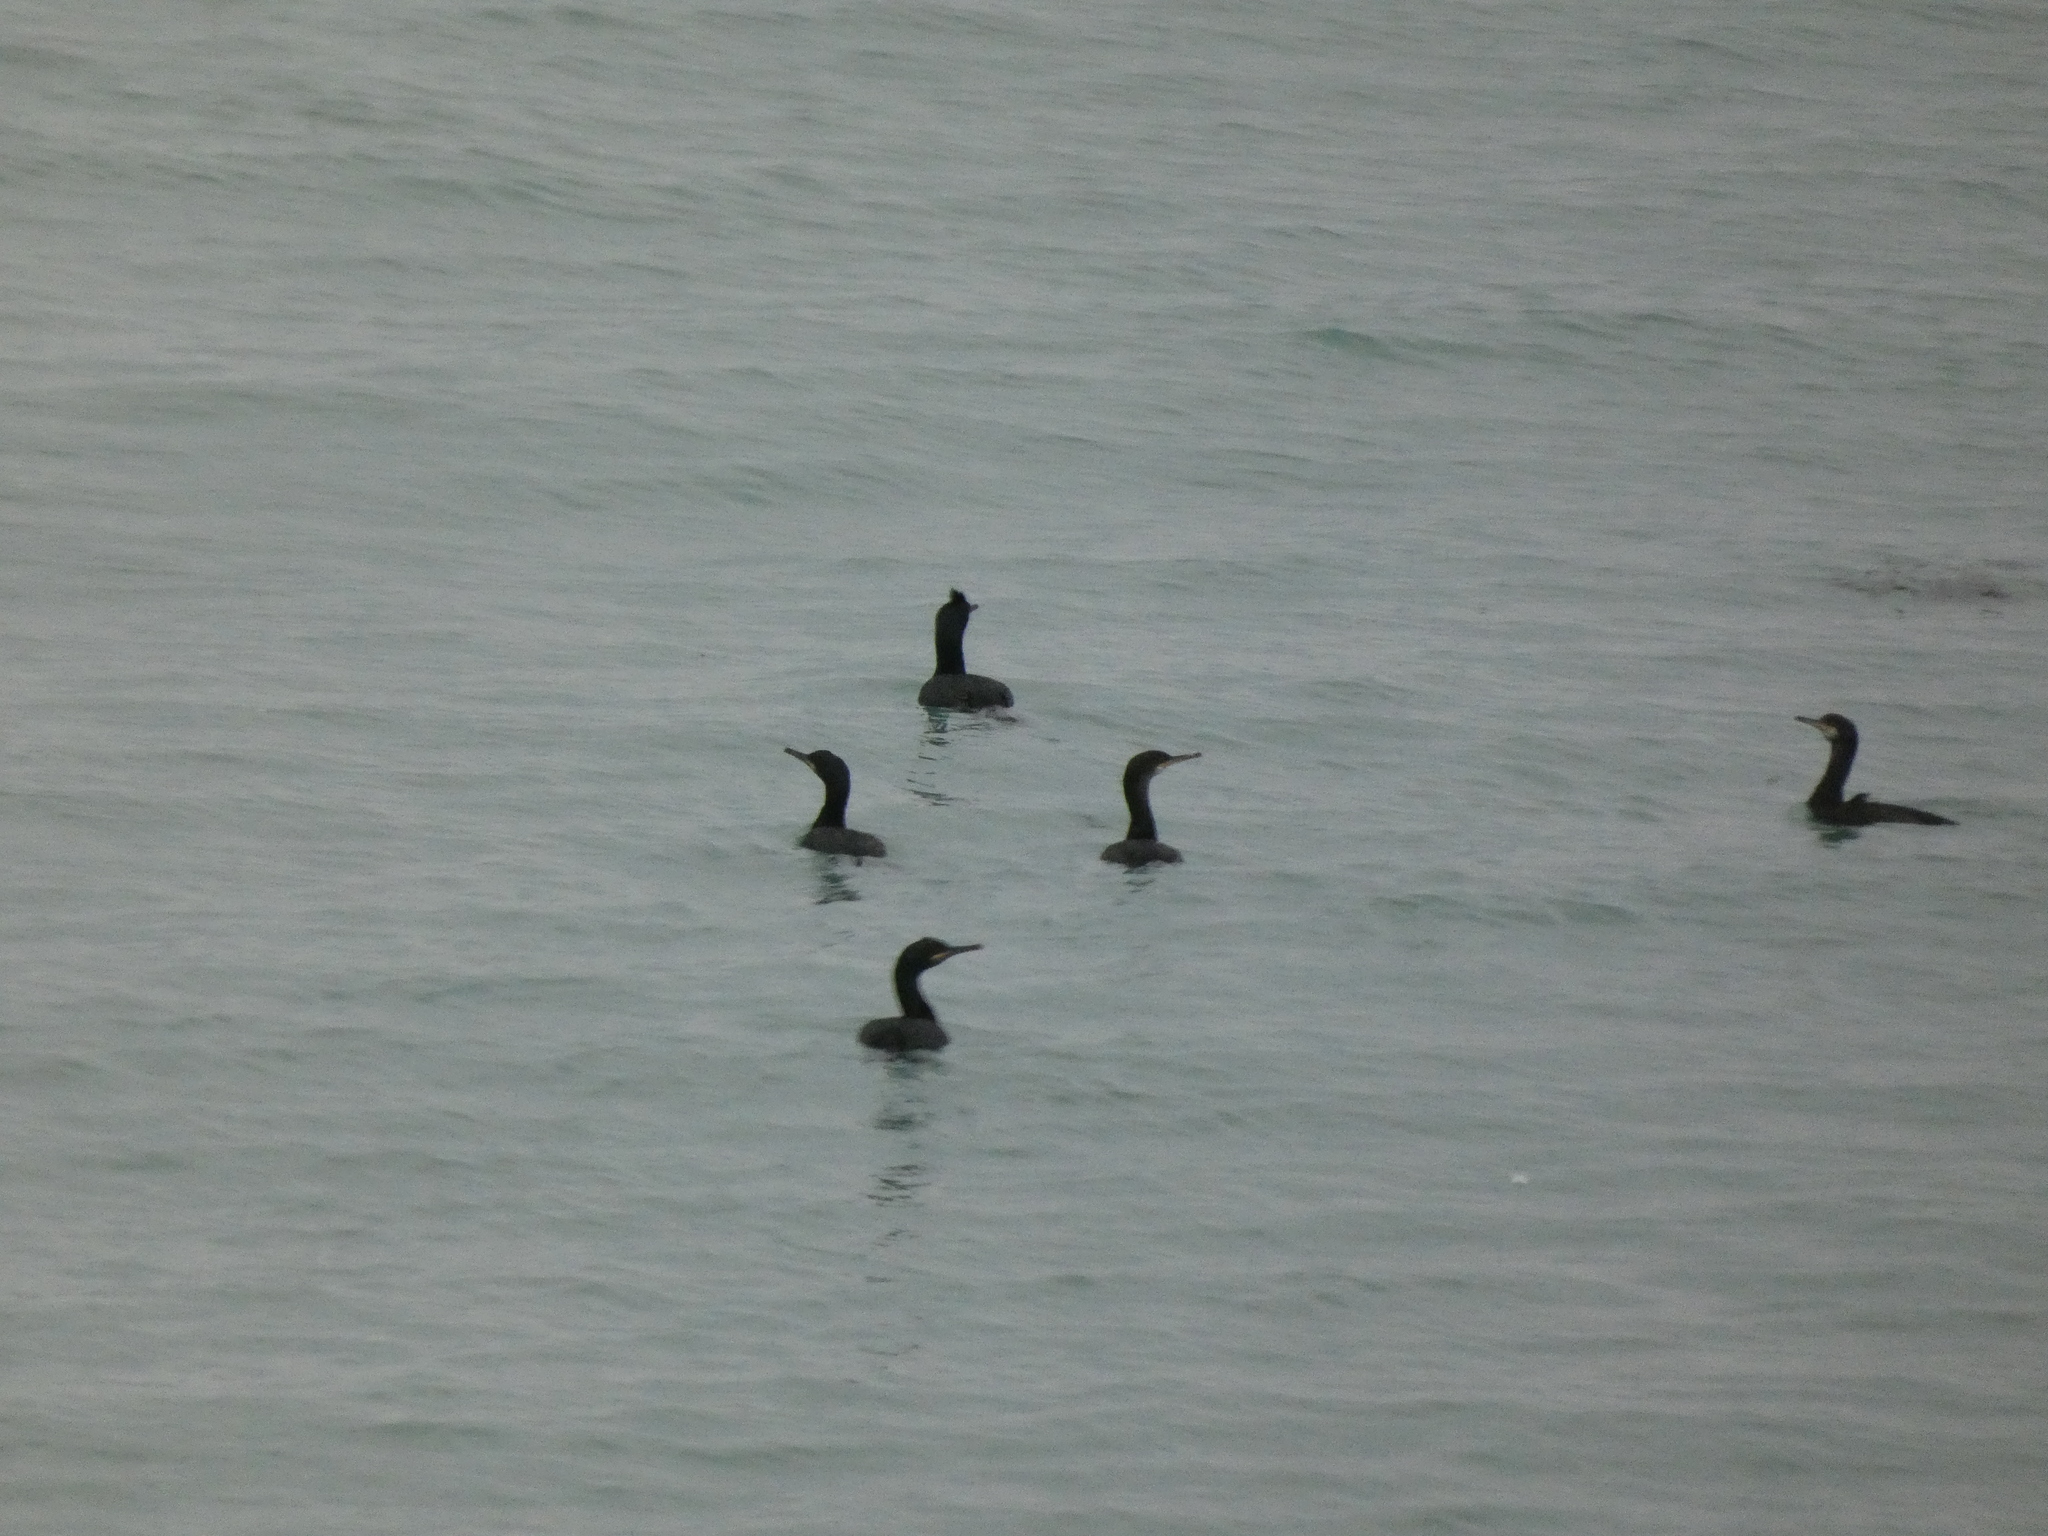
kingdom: Animalia
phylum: Chordata
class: Aves
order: Suliformes
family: Phalacrocoracidae
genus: Phalacrocorax
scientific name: Phalacrocorax aristotelis
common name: European shag
